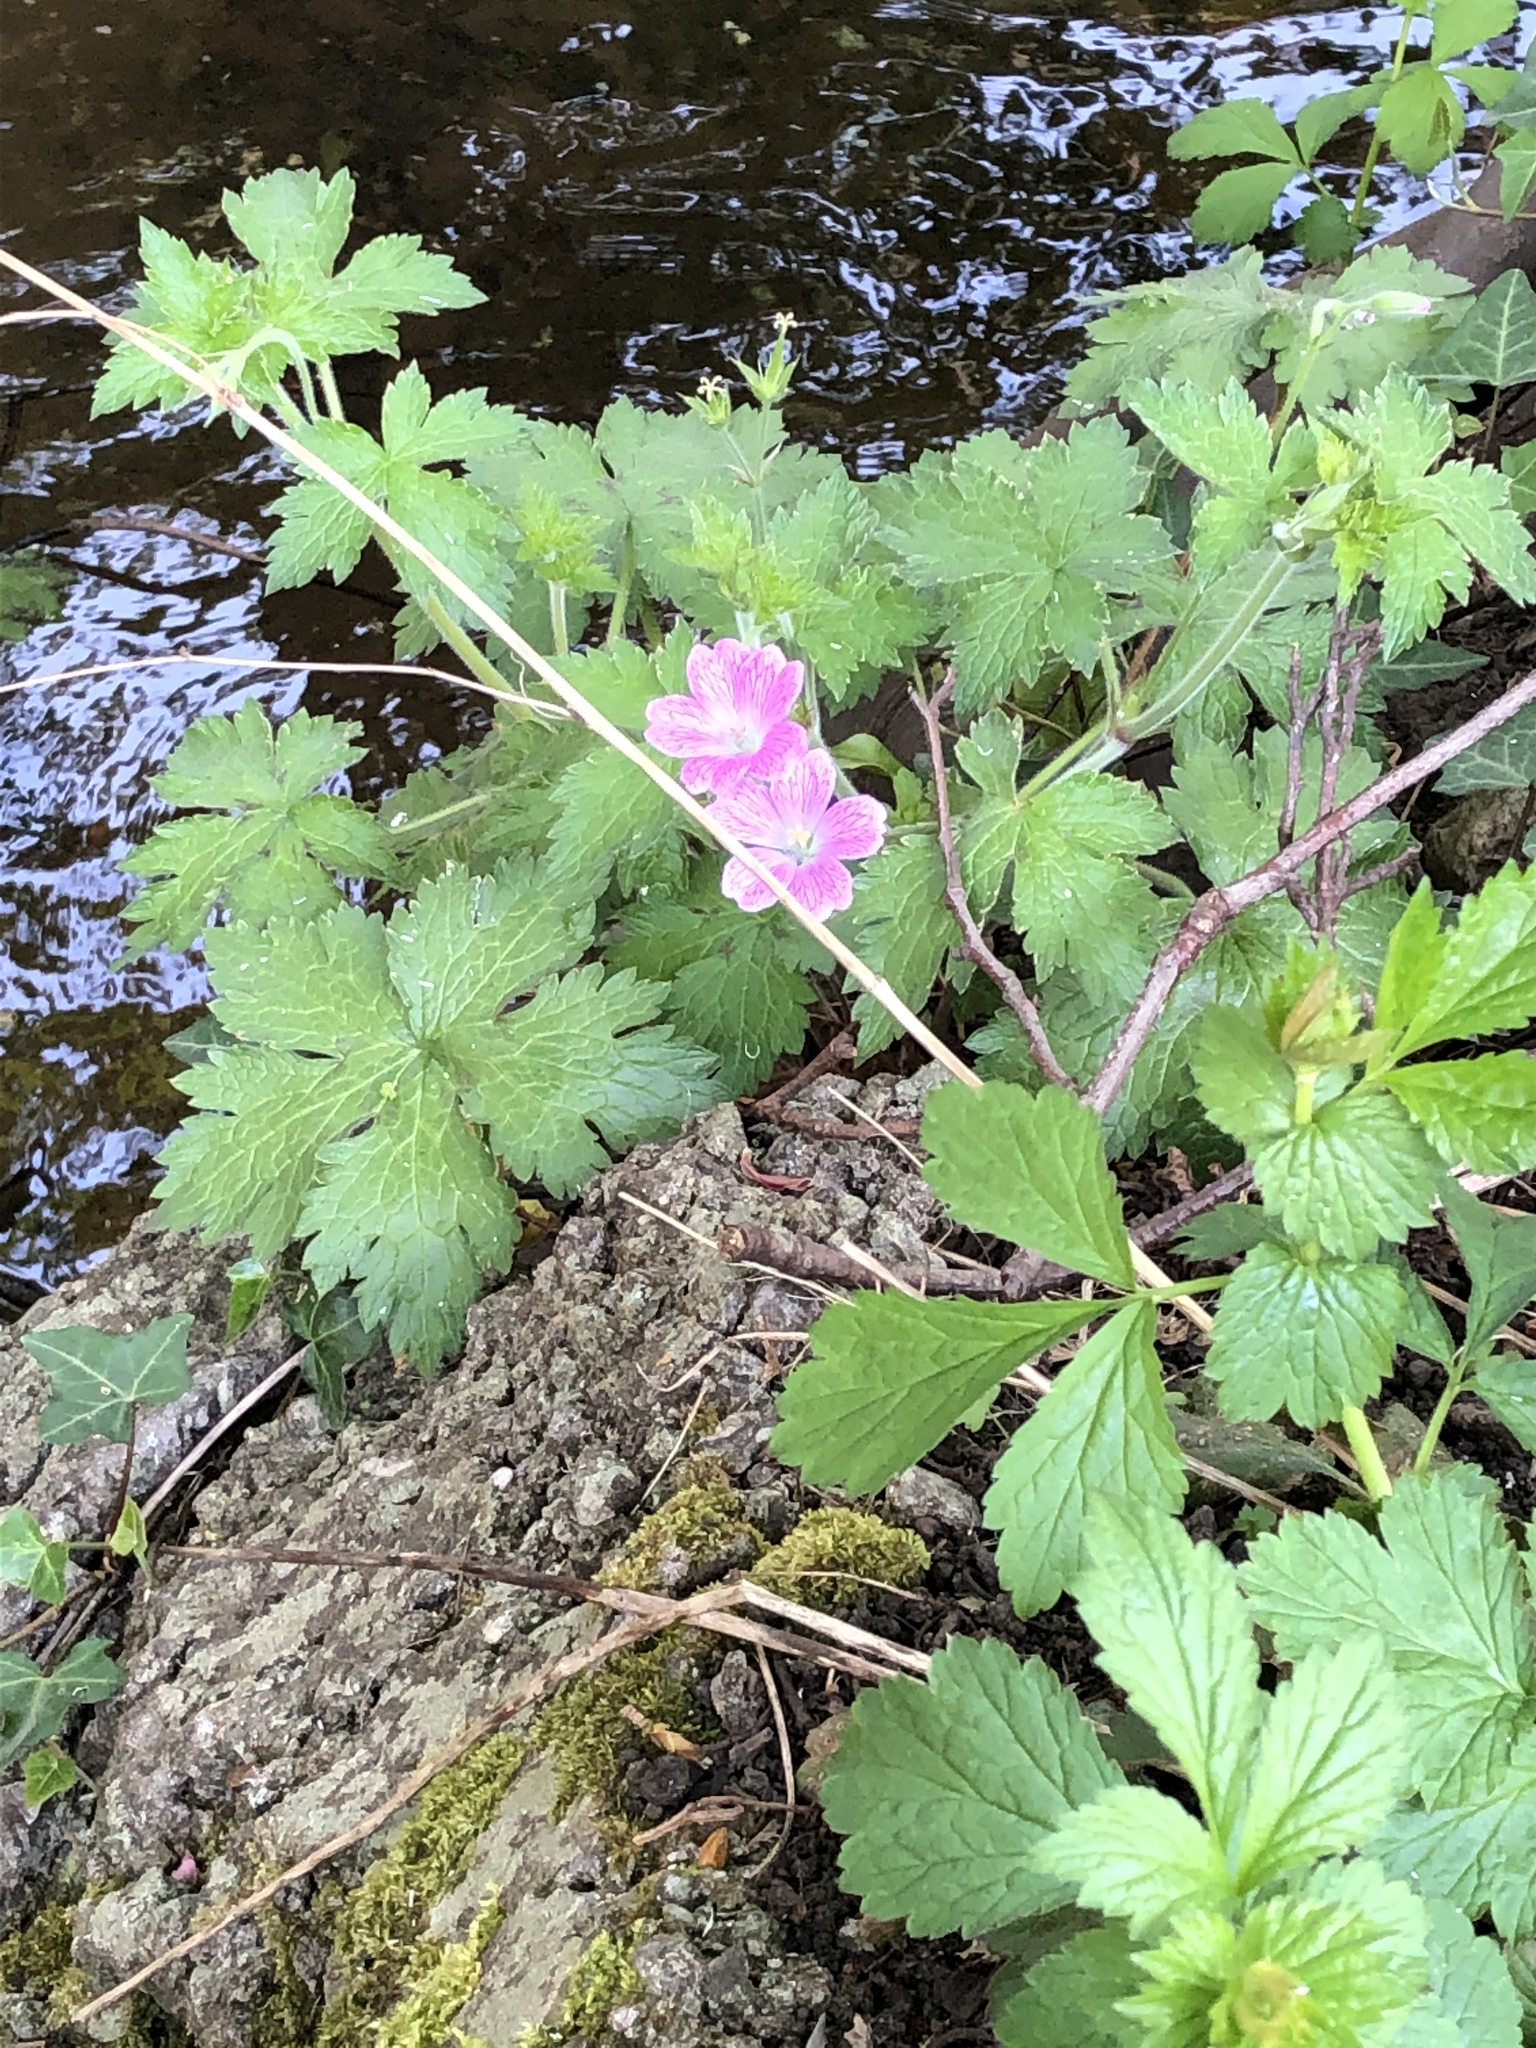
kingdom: Plantae
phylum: Tracheophyta
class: Magnoliopsida
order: Geraniales
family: Geraniaceae
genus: Geranium
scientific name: Geranium oxonianum
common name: Druce's crane's-bill
